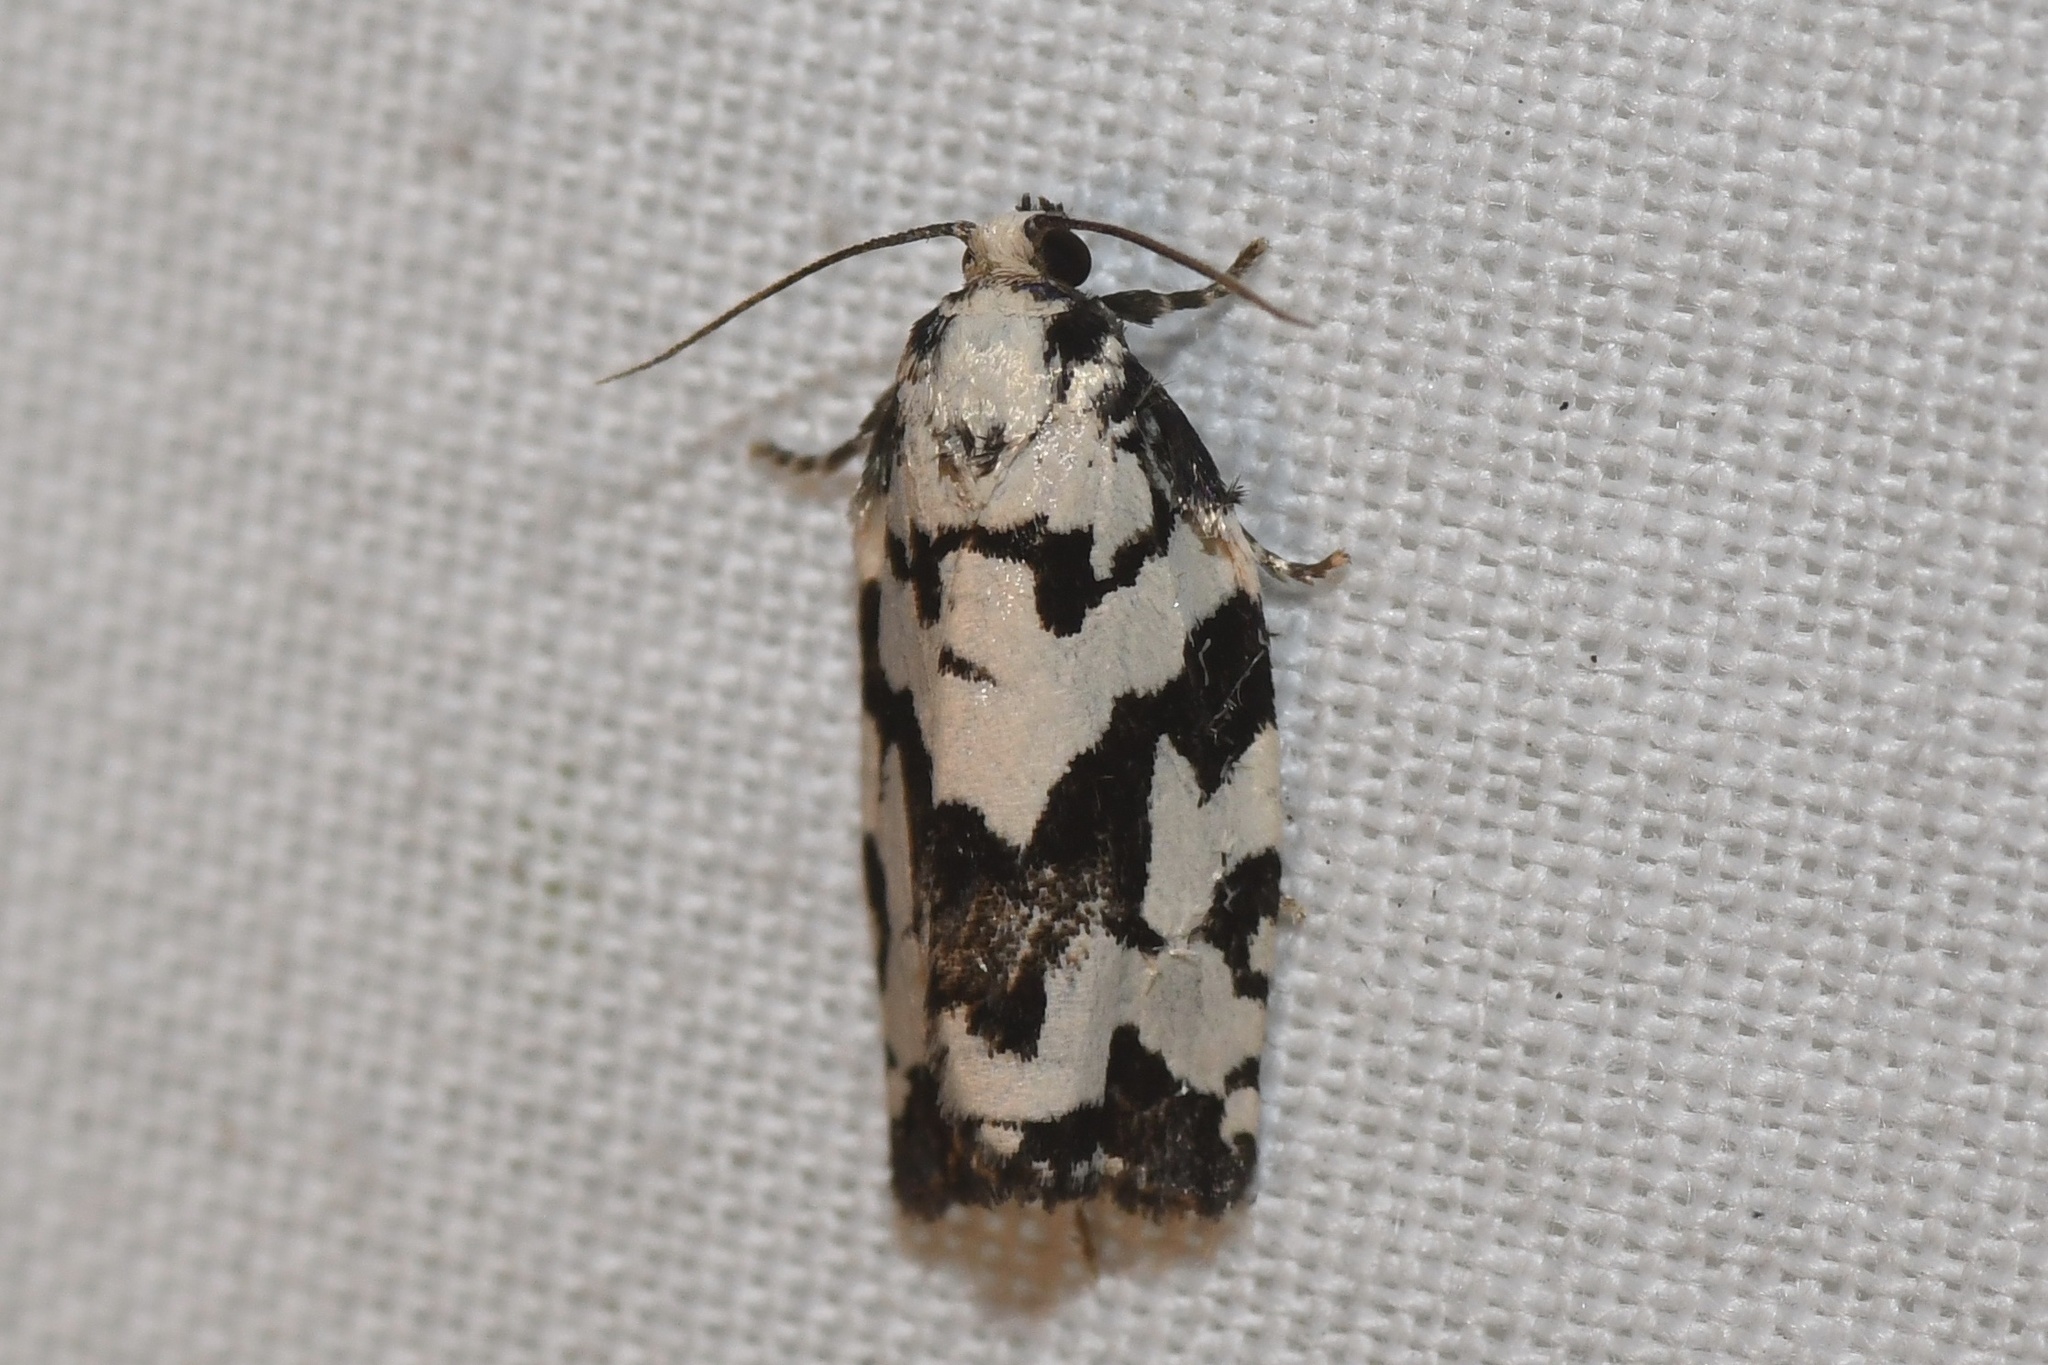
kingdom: Animalia
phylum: Arthropoda
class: Insecta
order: Lepidoptera
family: Tortricidae
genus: Archips
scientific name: Archips dissitana
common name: Boldly-marked archips moth
